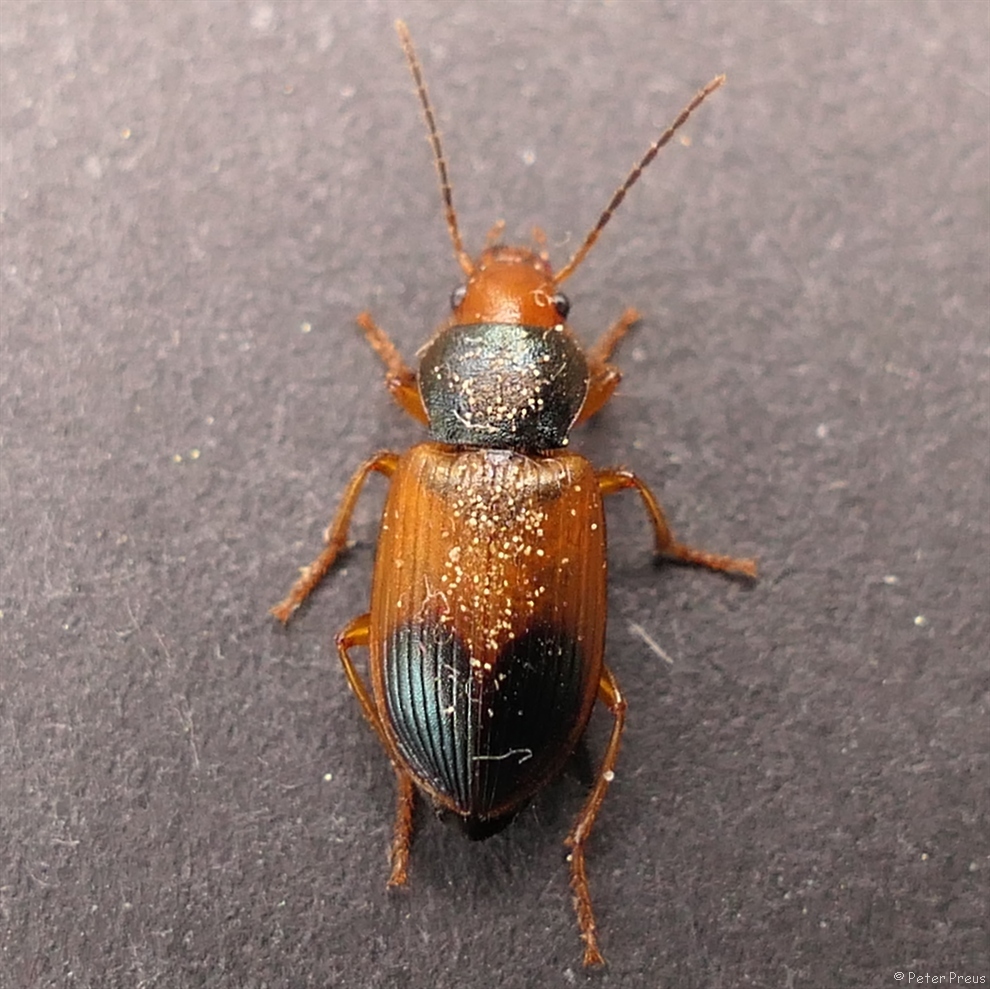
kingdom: Animalia
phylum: Arthropoda
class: Insecta
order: Coleoptera
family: Carabidae
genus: Diachromus
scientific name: Diachromus germanus
